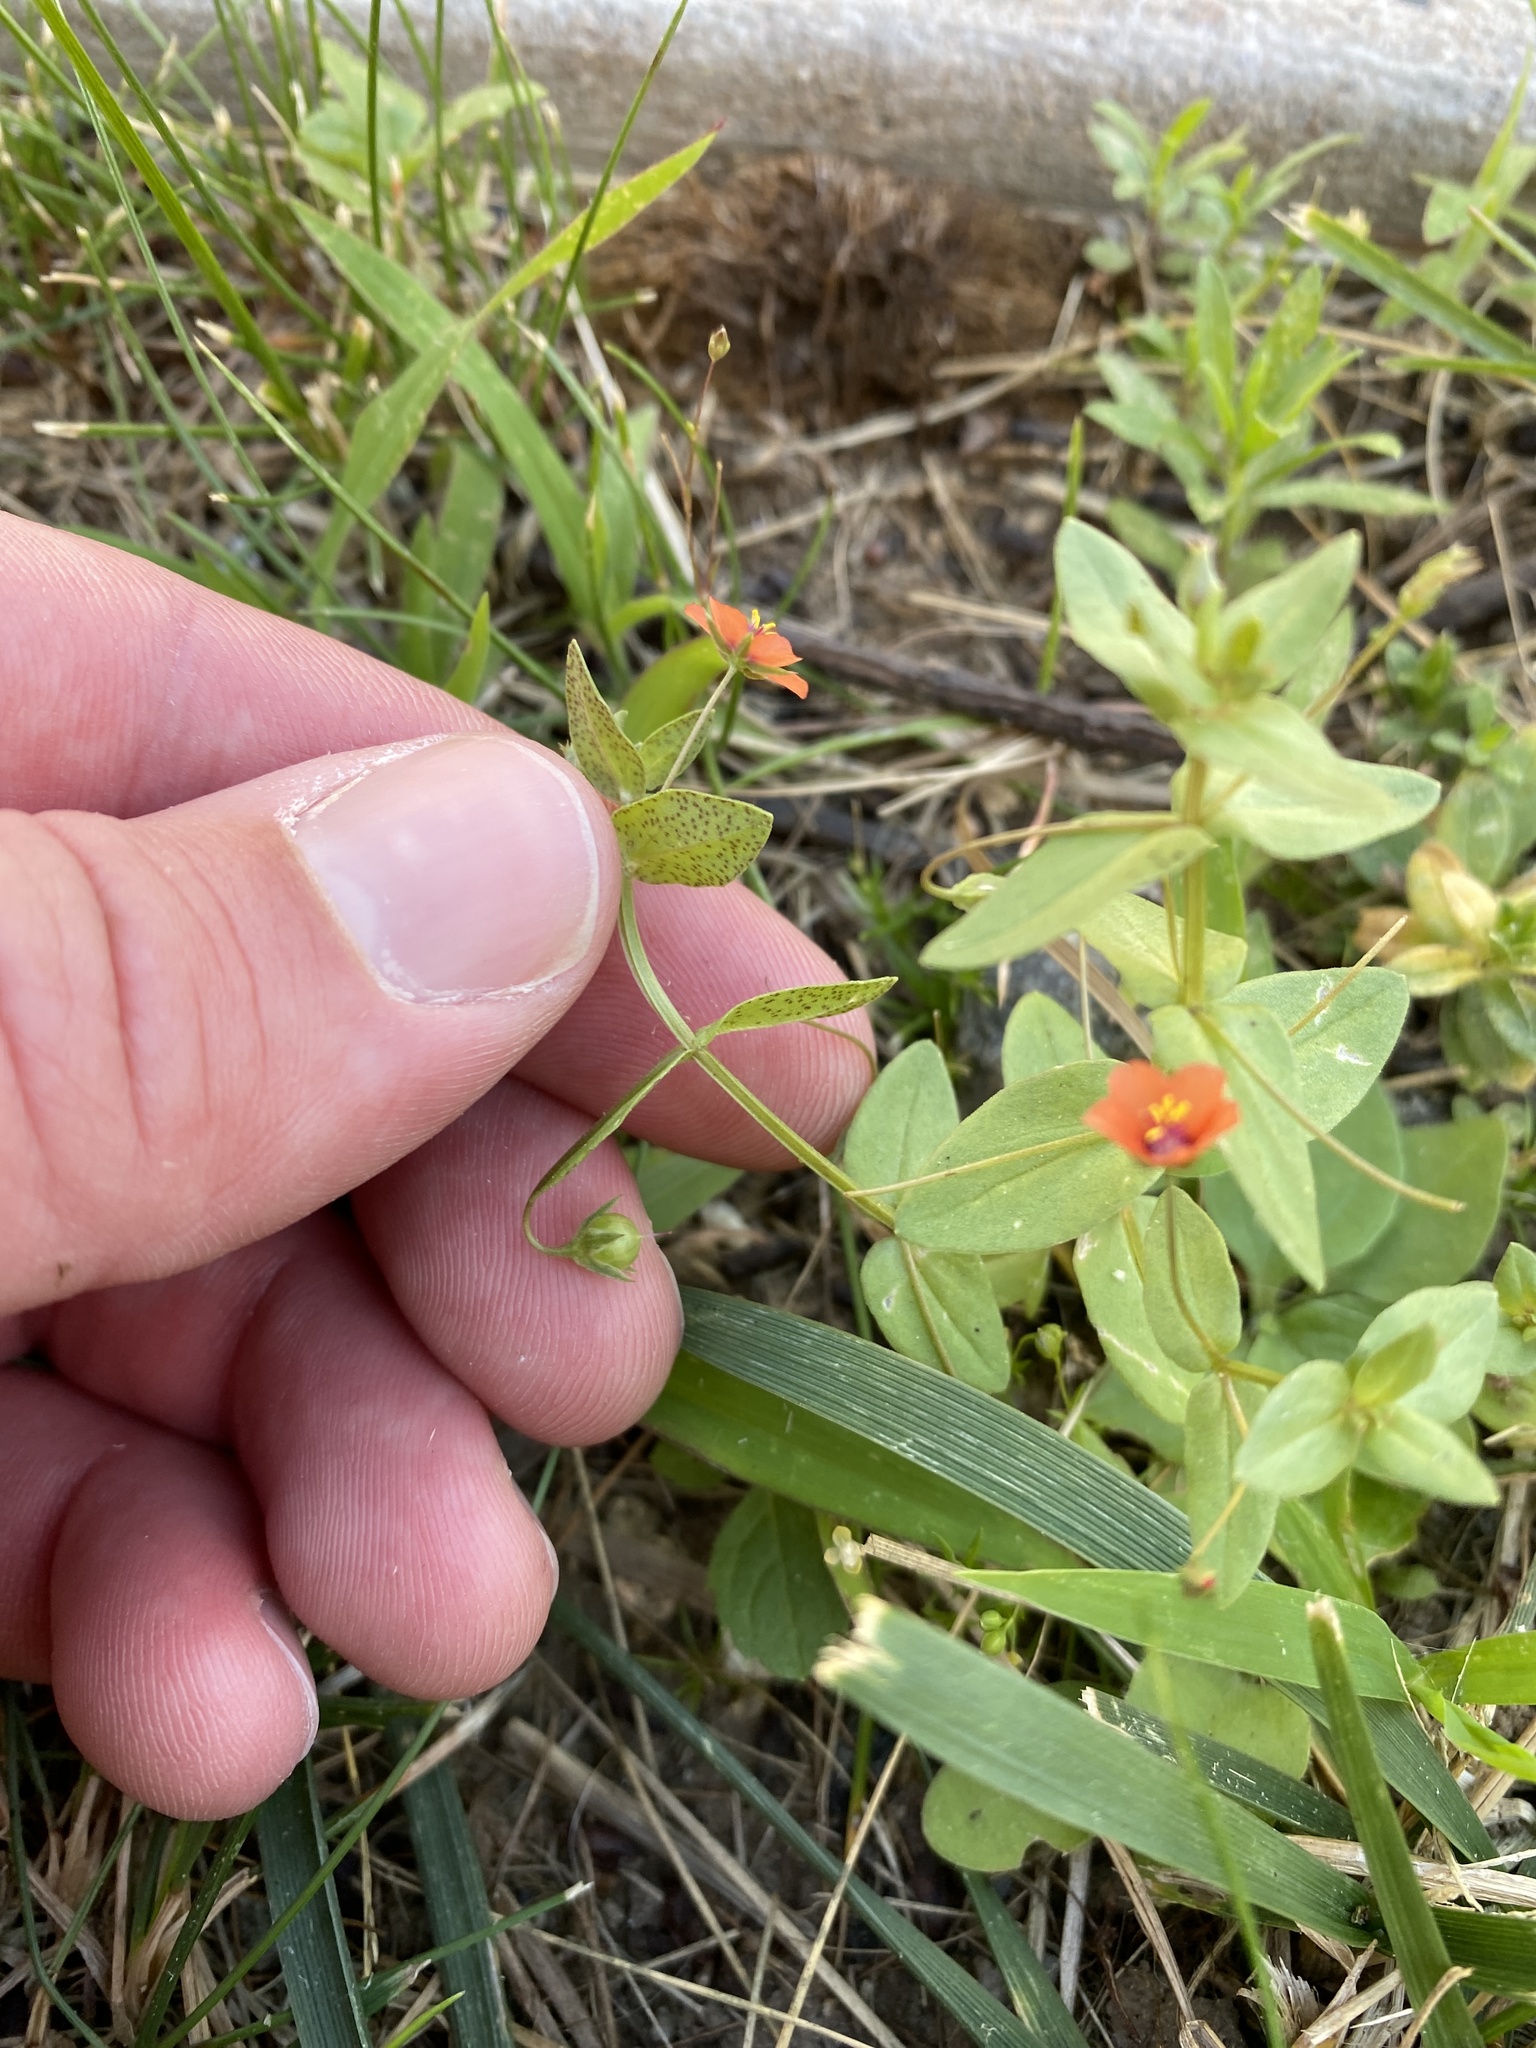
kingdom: Plantae
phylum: Tracheophyta
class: Magnoliopsida
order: Ericales
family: Primulaceae
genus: Lysimachia
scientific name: Lysimachia arvensis
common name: Scarlet pimpernel
